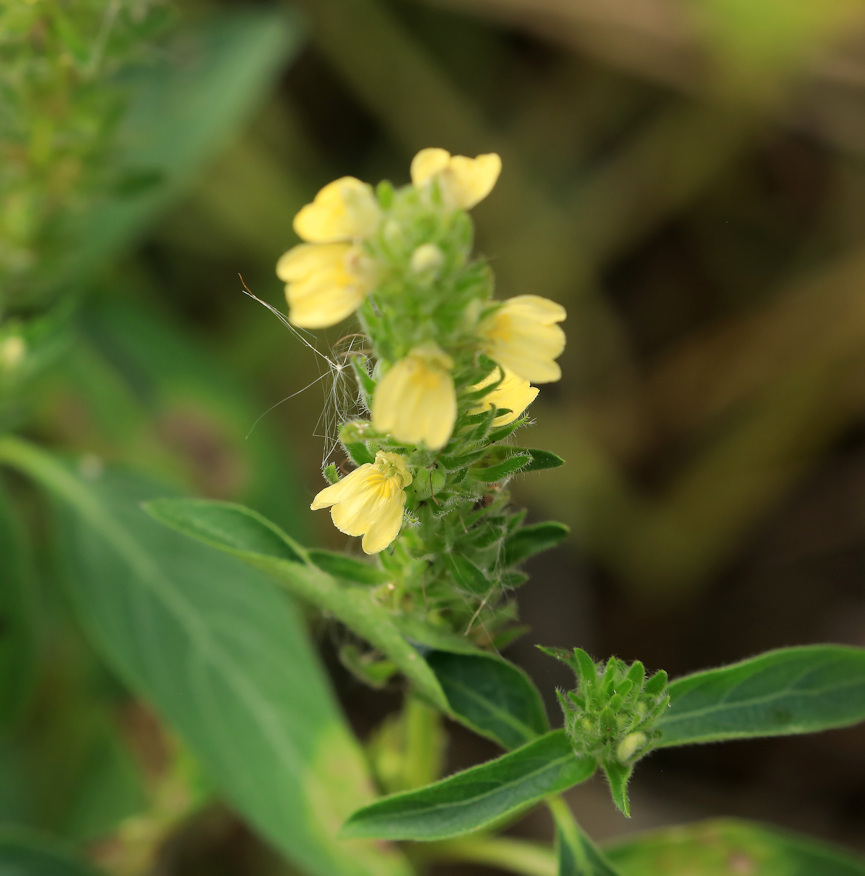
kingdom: Plantae
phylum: Tracheophyta
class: Magnoliopsida
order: Lamiales
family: Acanthaceae
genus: Justicia
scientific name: Justicia flava
